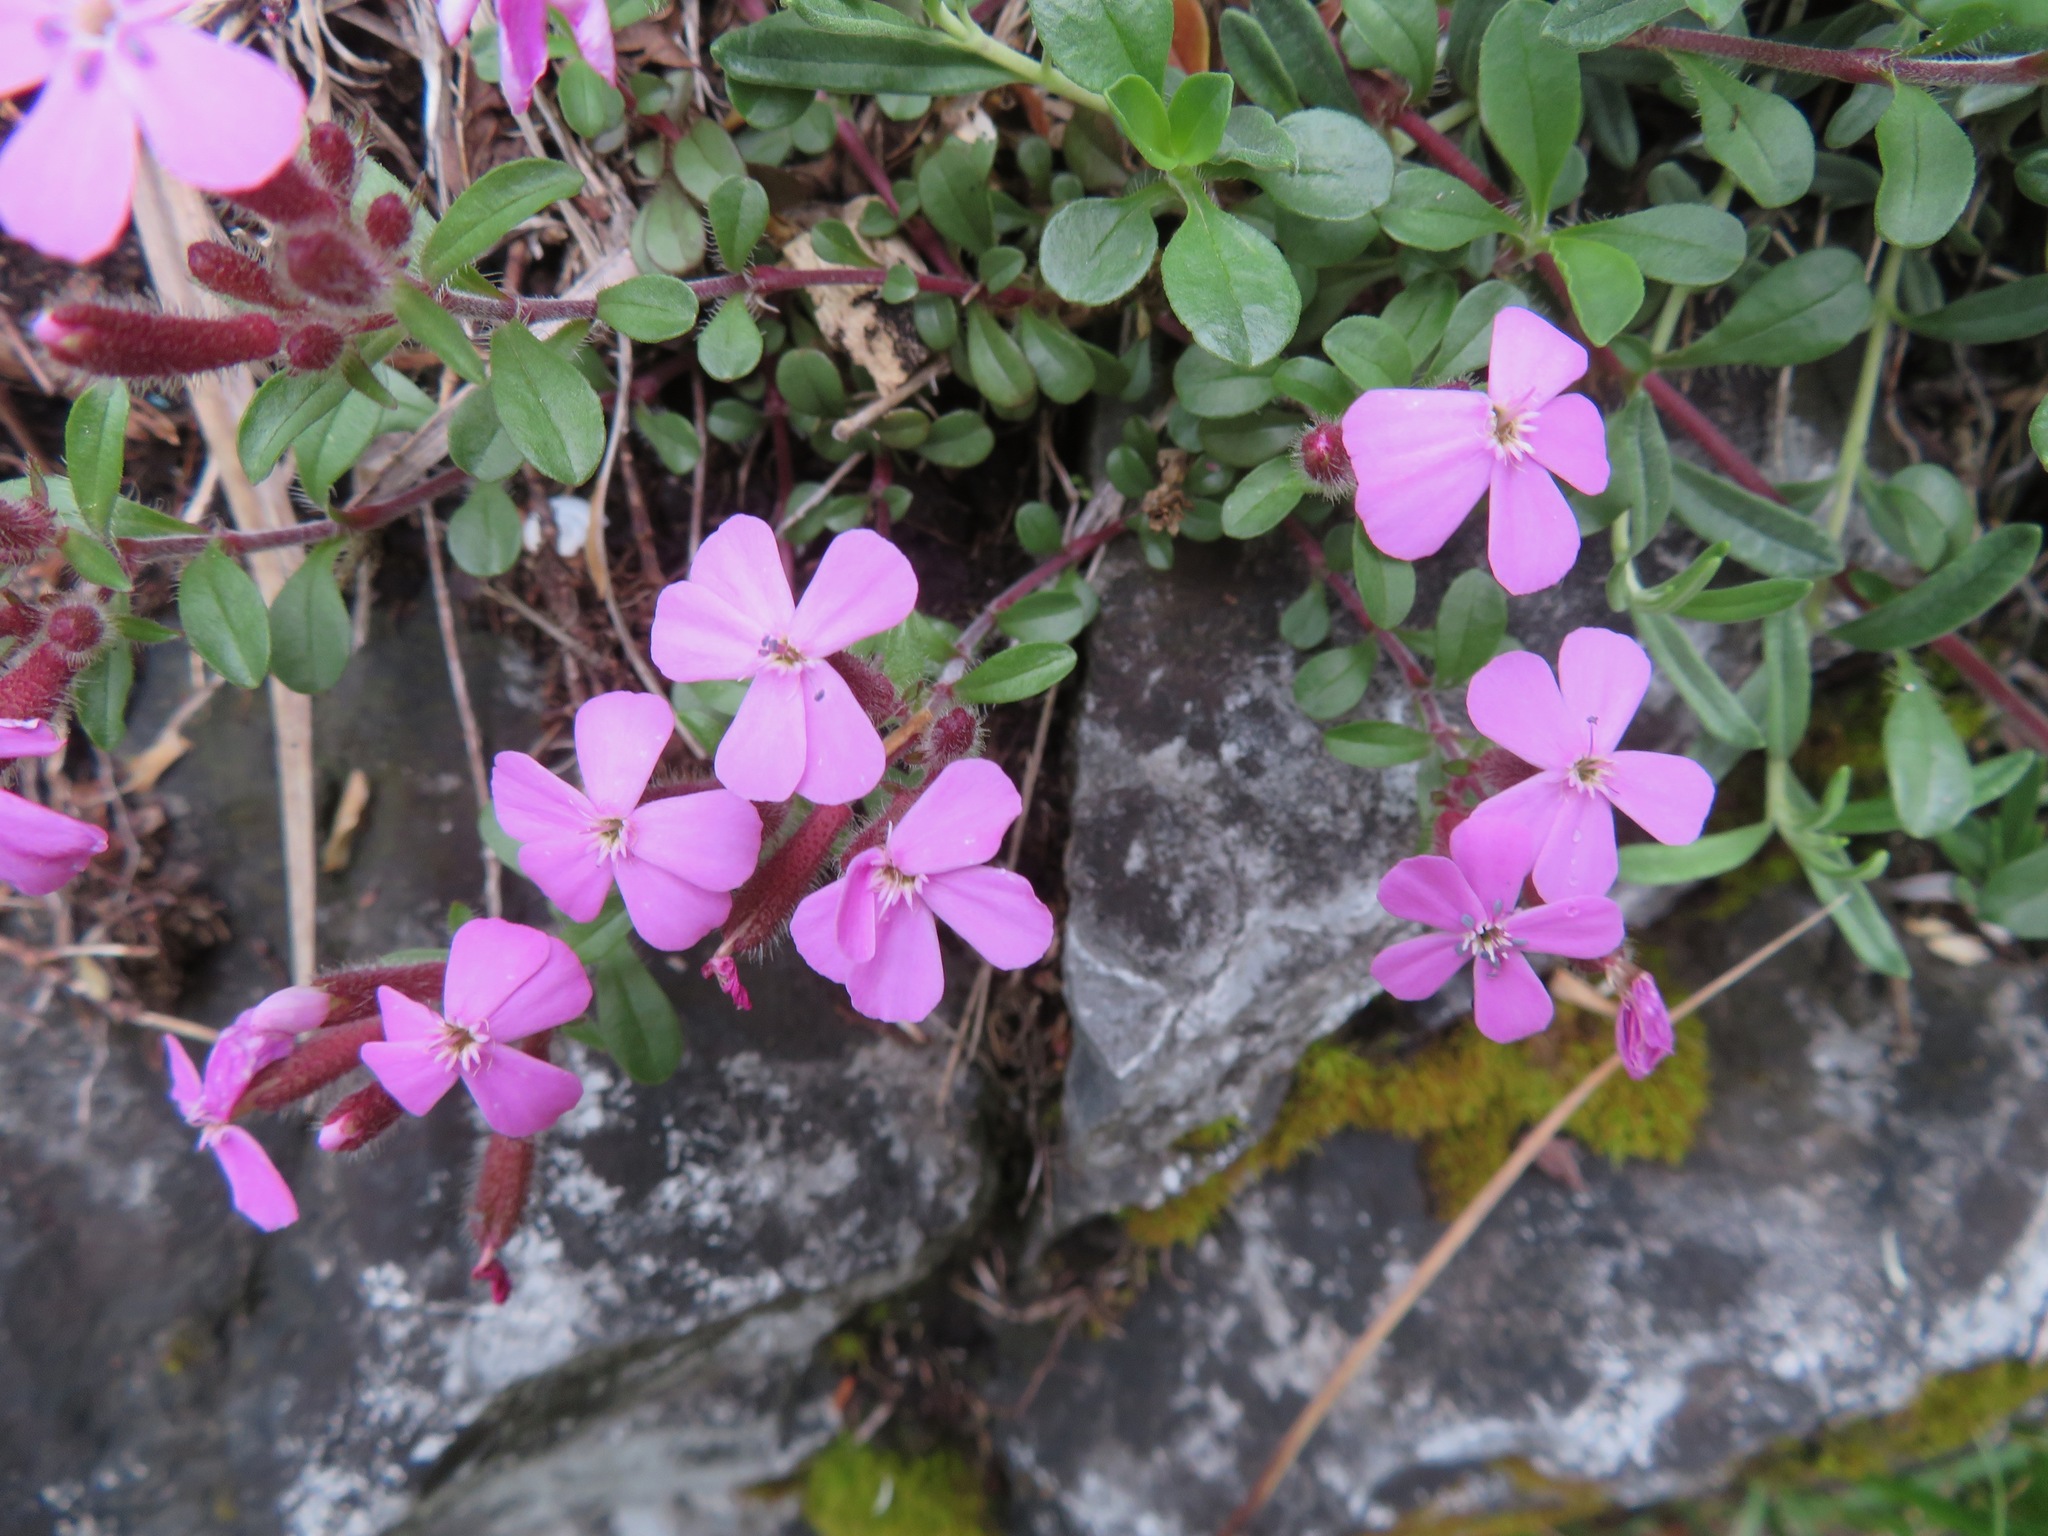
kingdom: Plantae
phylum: Tracheophyta
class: Magnoliopsida
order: Caryophyllales
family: Caryophyllaceae
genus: Saponaria
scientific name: Saponaria ocymoides
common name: Rock soapwort
